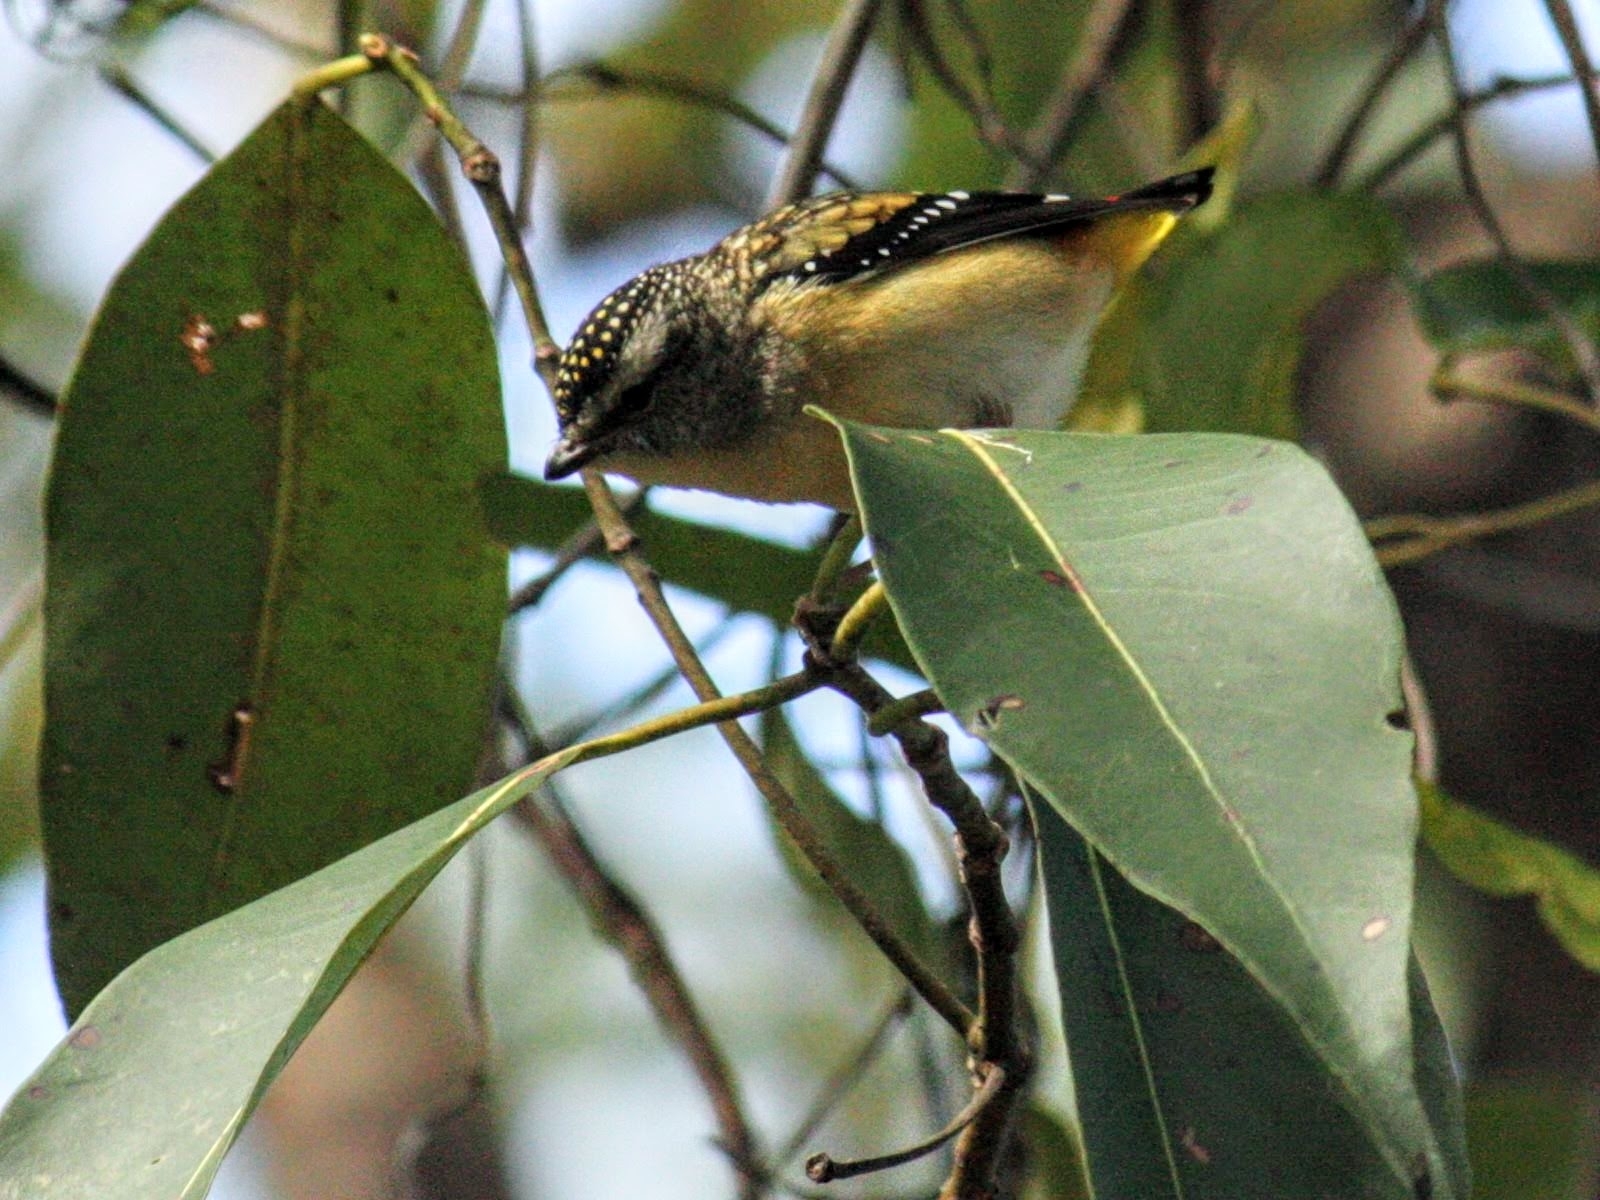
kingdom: Animalia
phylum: Chordata
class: Aves
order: Passeriformes
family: Pardalotidae
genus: Pardalotus
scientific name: Pardalotus punctatus
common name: Spotted pardalote
